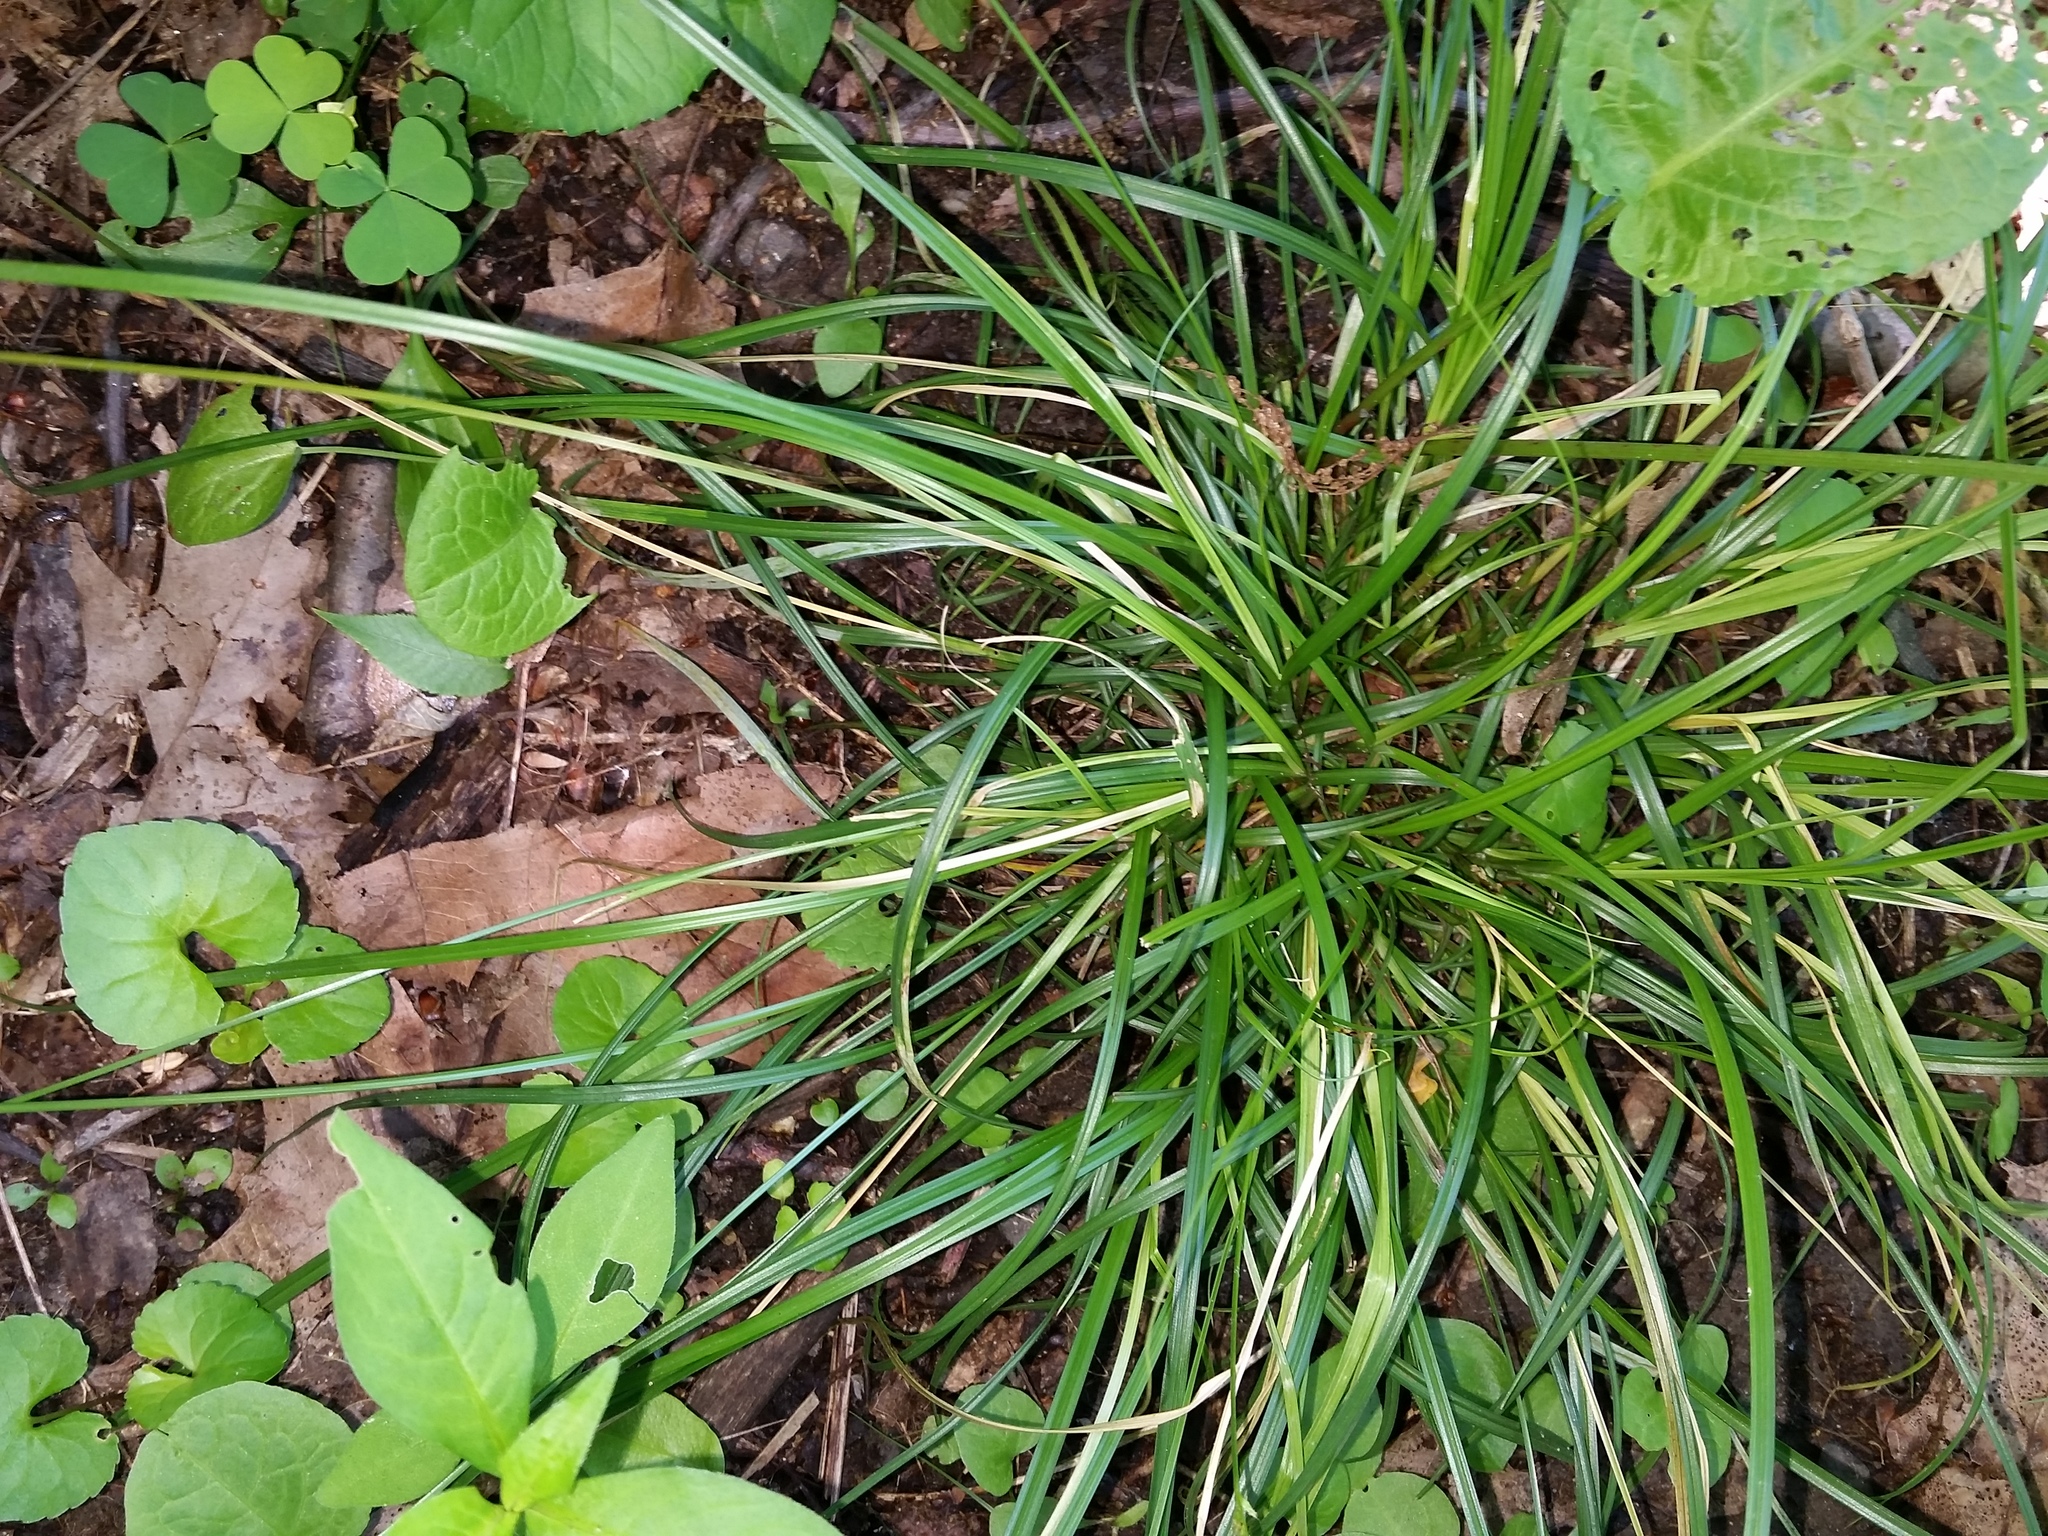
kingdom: Plantae
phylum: Tracheophyta
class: Liliopsida
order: Poales
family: Cyperaceae
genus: Carex
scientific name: Carex spicata
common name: Spiked sedge
